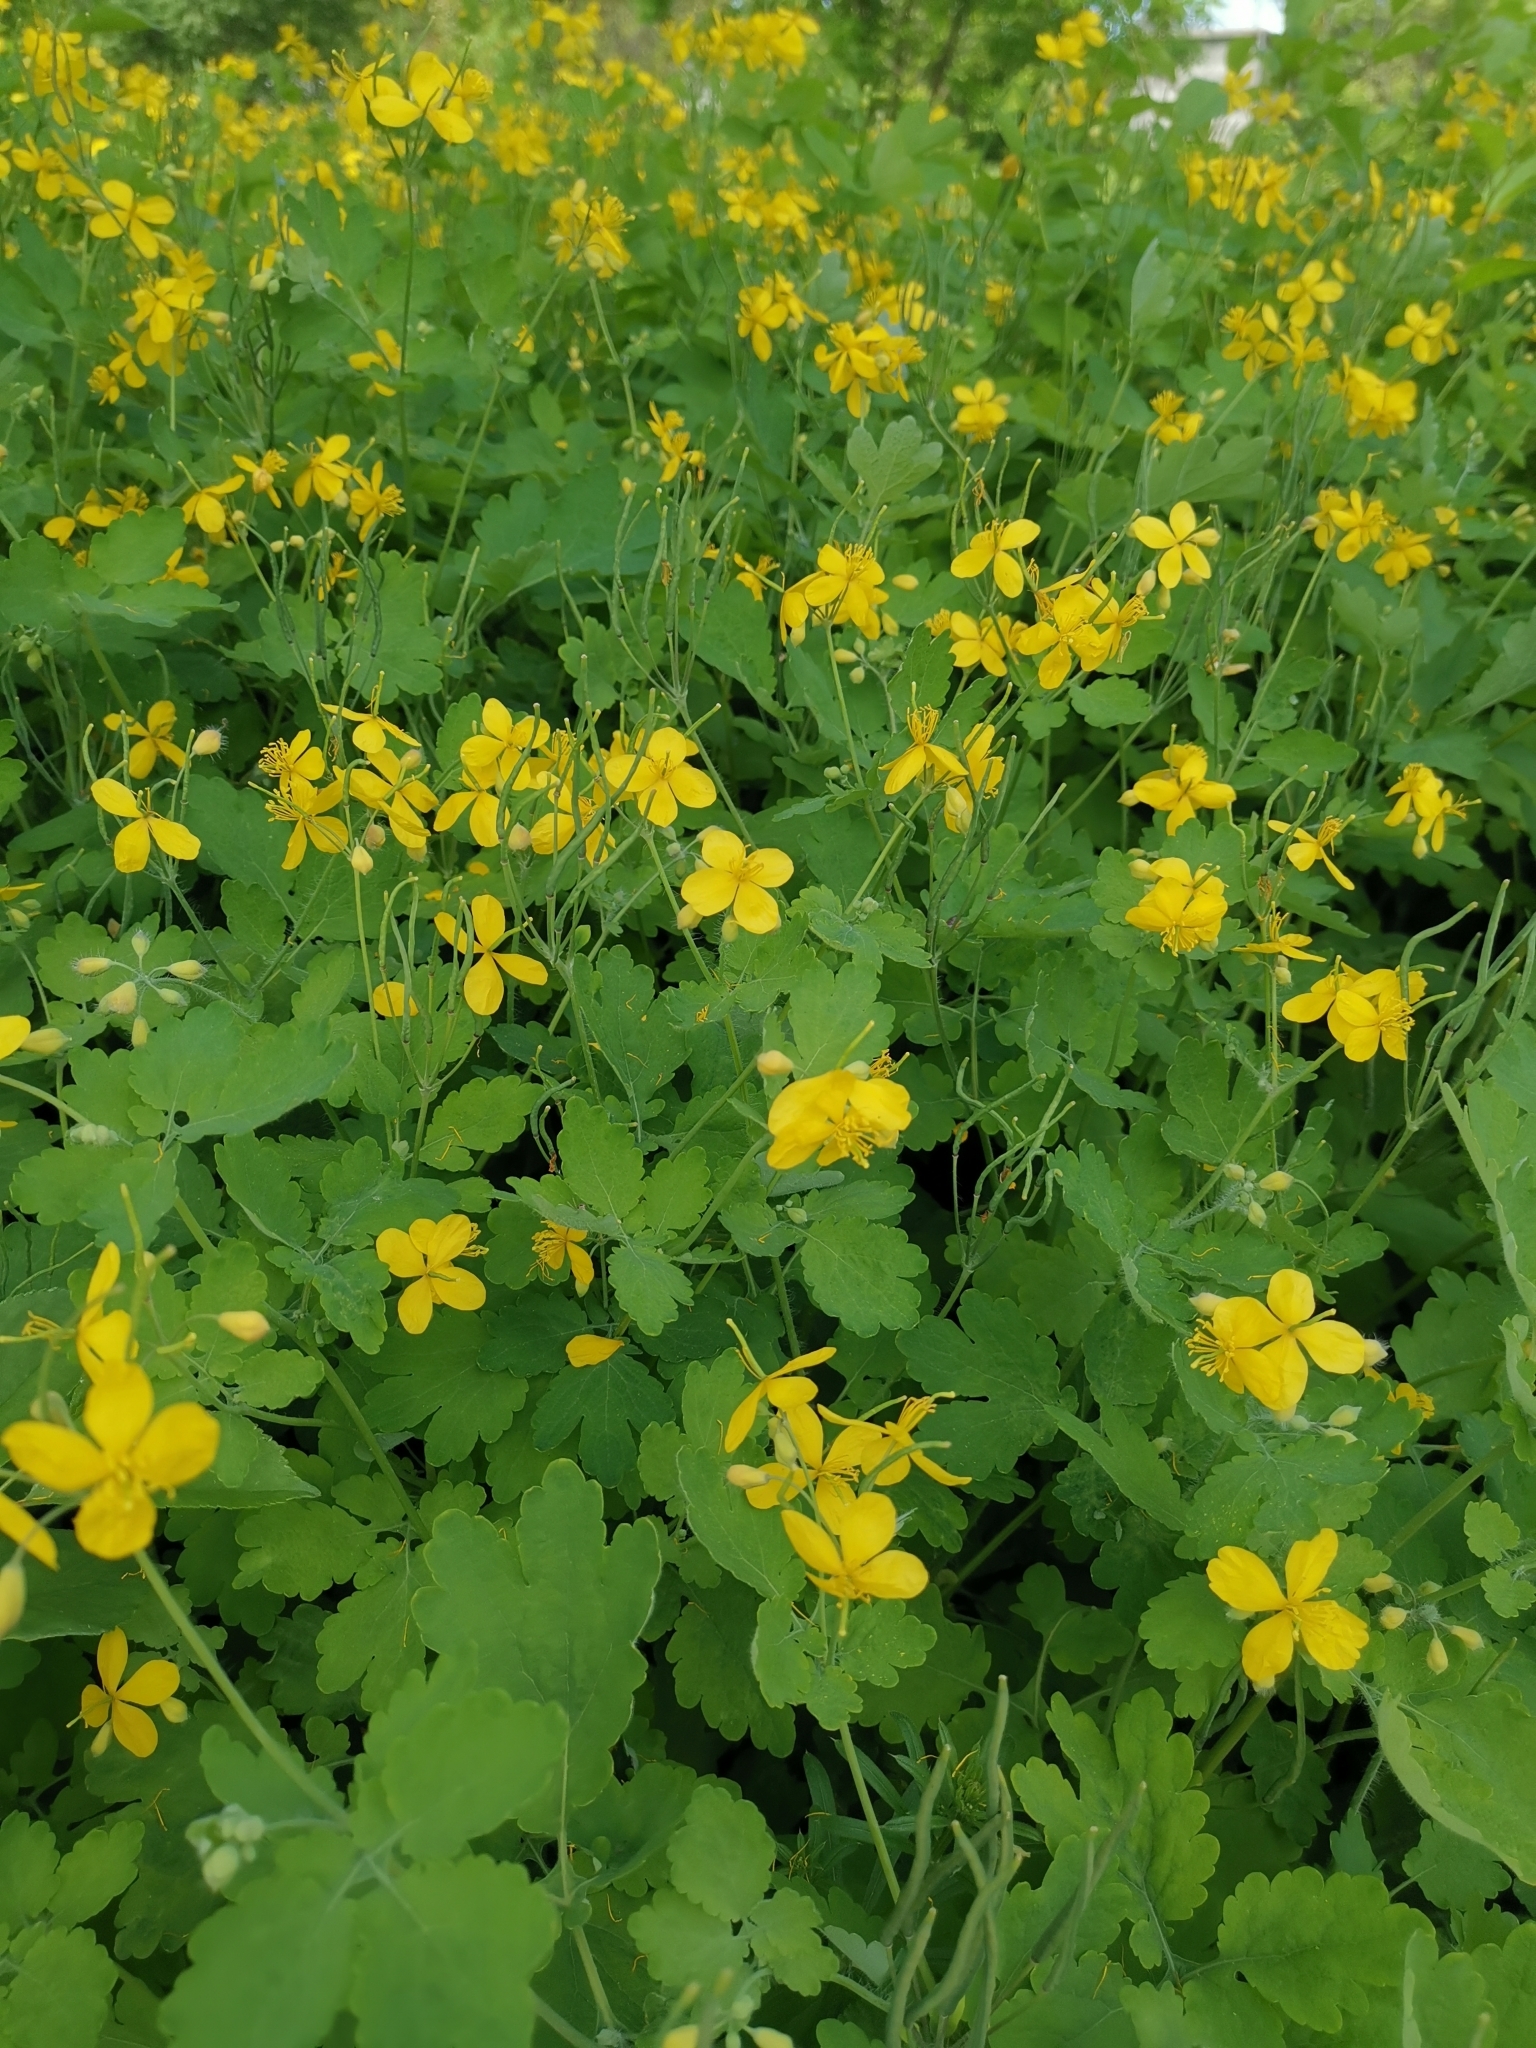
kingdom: Plantae
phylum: Tracheophyta
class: Magnoliopsida
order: Ranunculales
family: Papaveraceae
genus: Chelidonium
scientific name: Chelidonium majus
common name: Greater celandine
